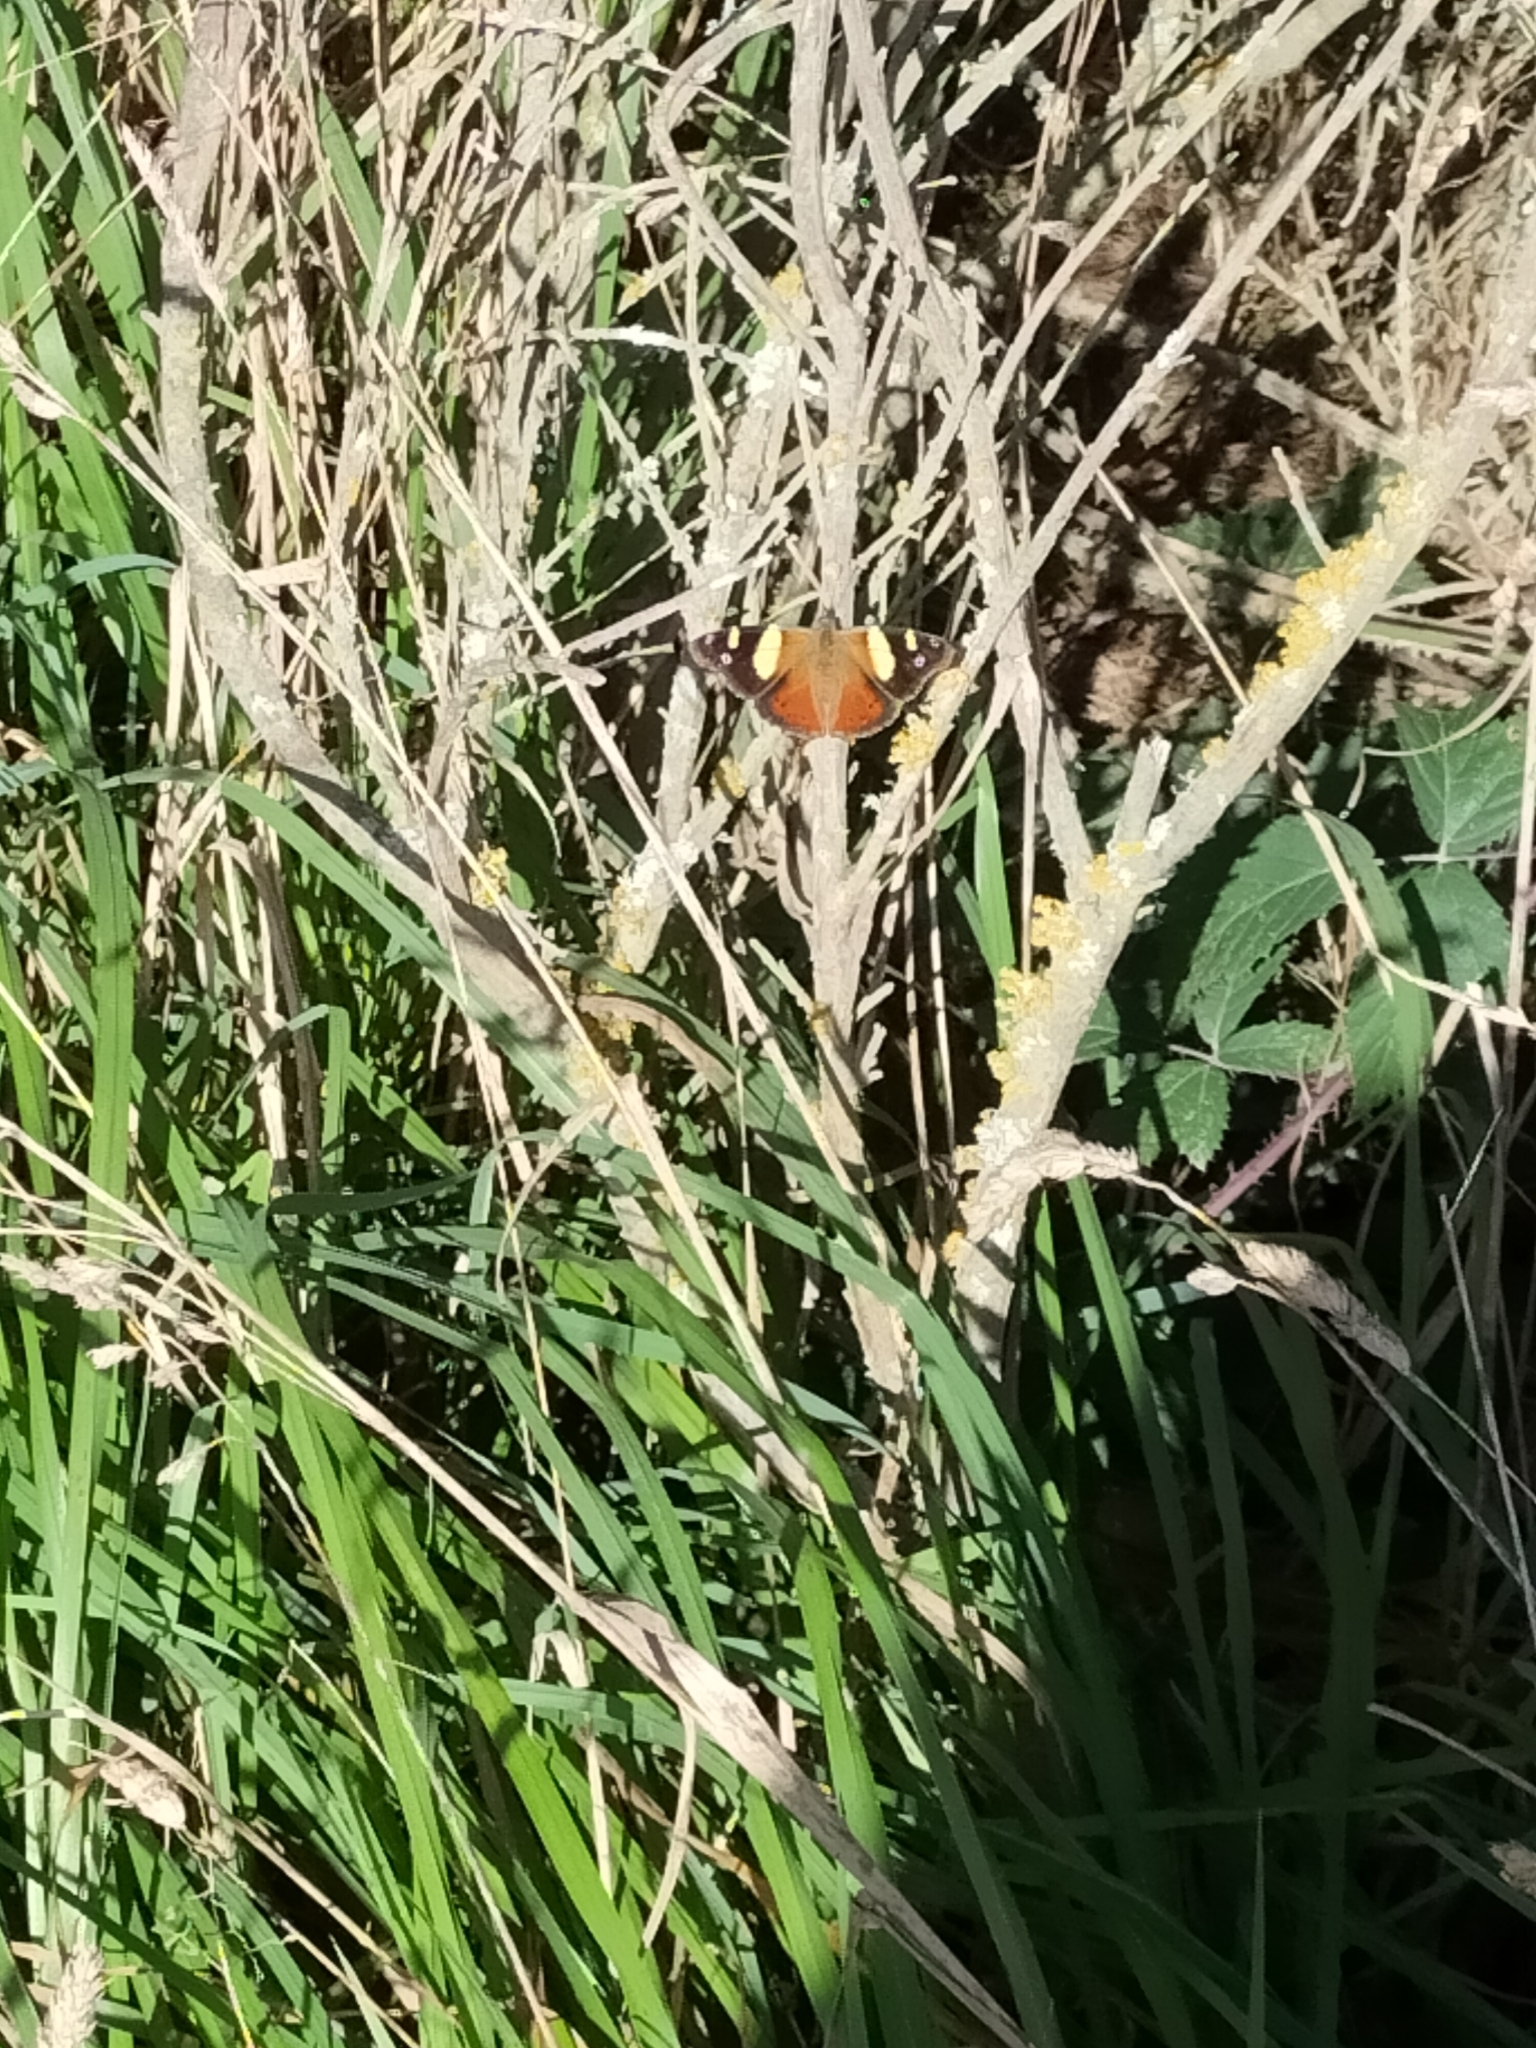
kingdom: Animalia
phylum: Arthropoda
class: Insecta
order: Lepidoptera
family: Nymphalidae
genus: Vanessa
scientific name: Vanessa itea
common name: Yellow admiral
